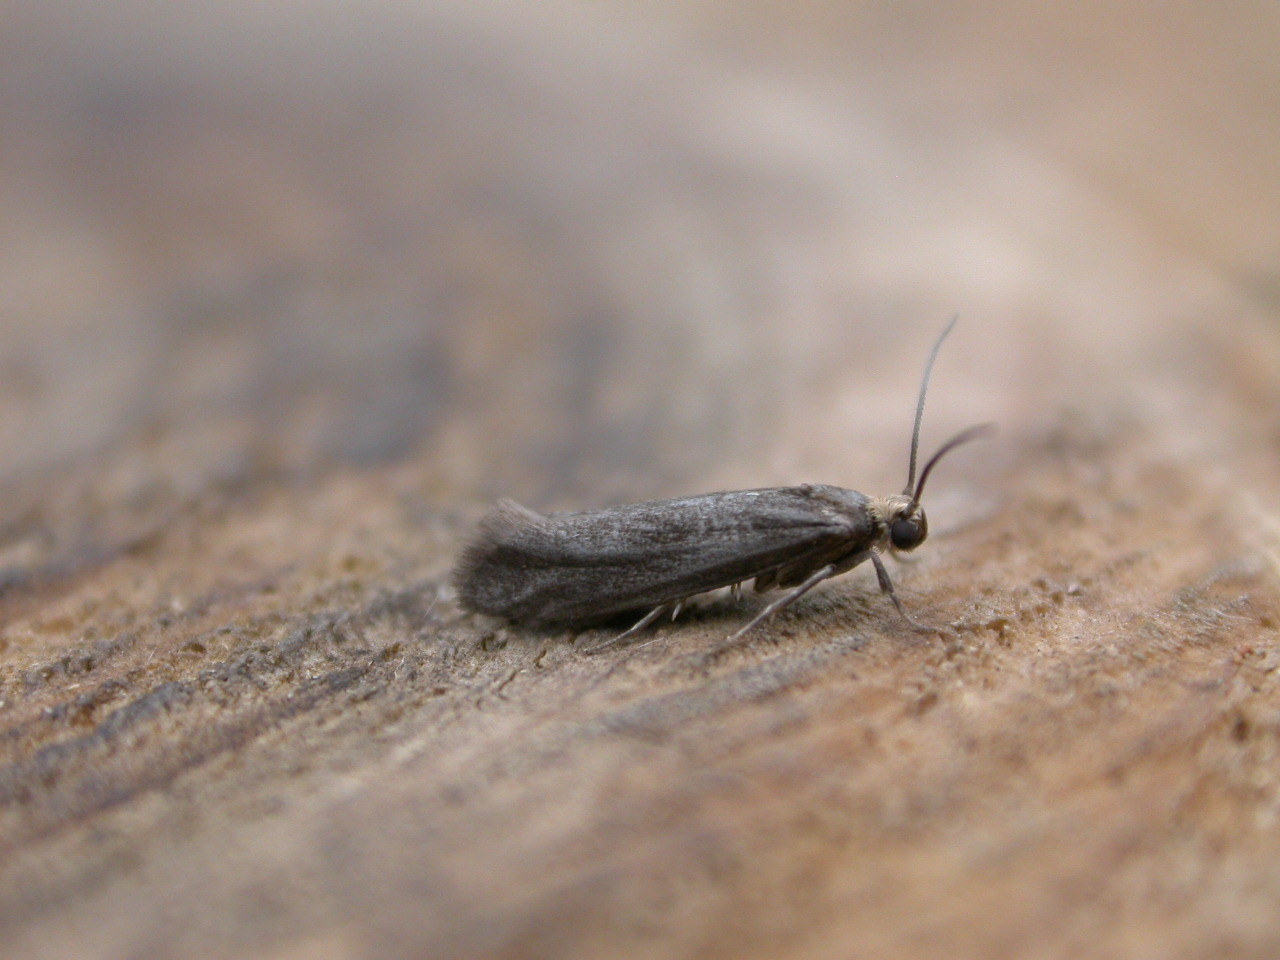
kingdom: Animalia
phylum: Arthropoda
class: Insecta
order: Lepidoptera
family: Praydidae
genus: Prays
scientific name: Prays curtisella
